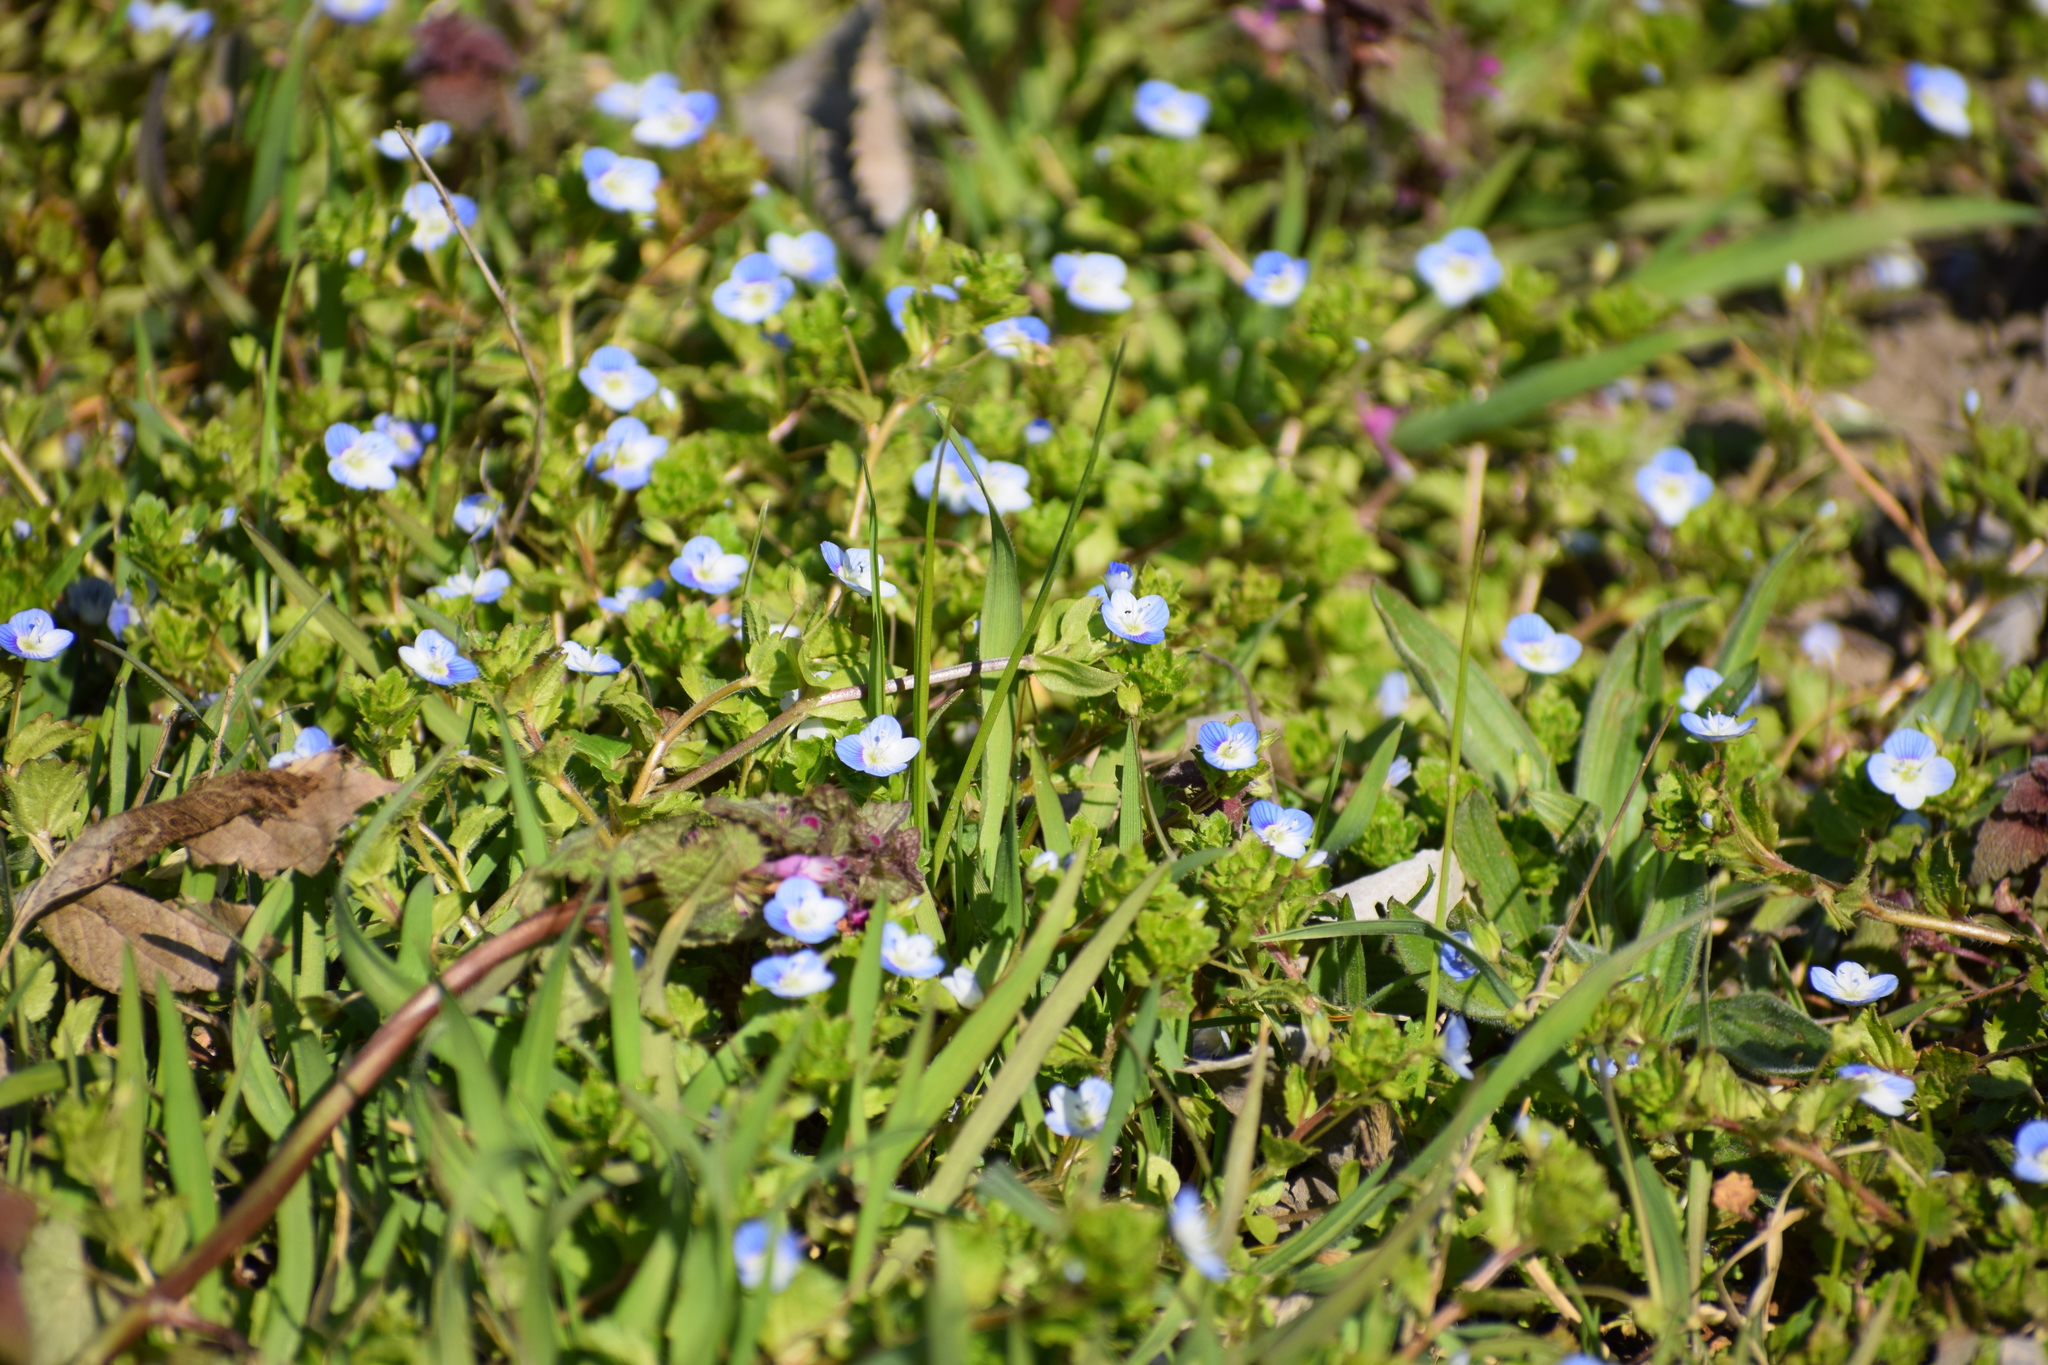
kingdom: Plantae
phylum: Tracheophyta
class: Magnoliopsida
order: Lamiales
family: Plantaginaceae
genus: Veronica
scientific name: Veronica persica
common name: Common field-speedwell
